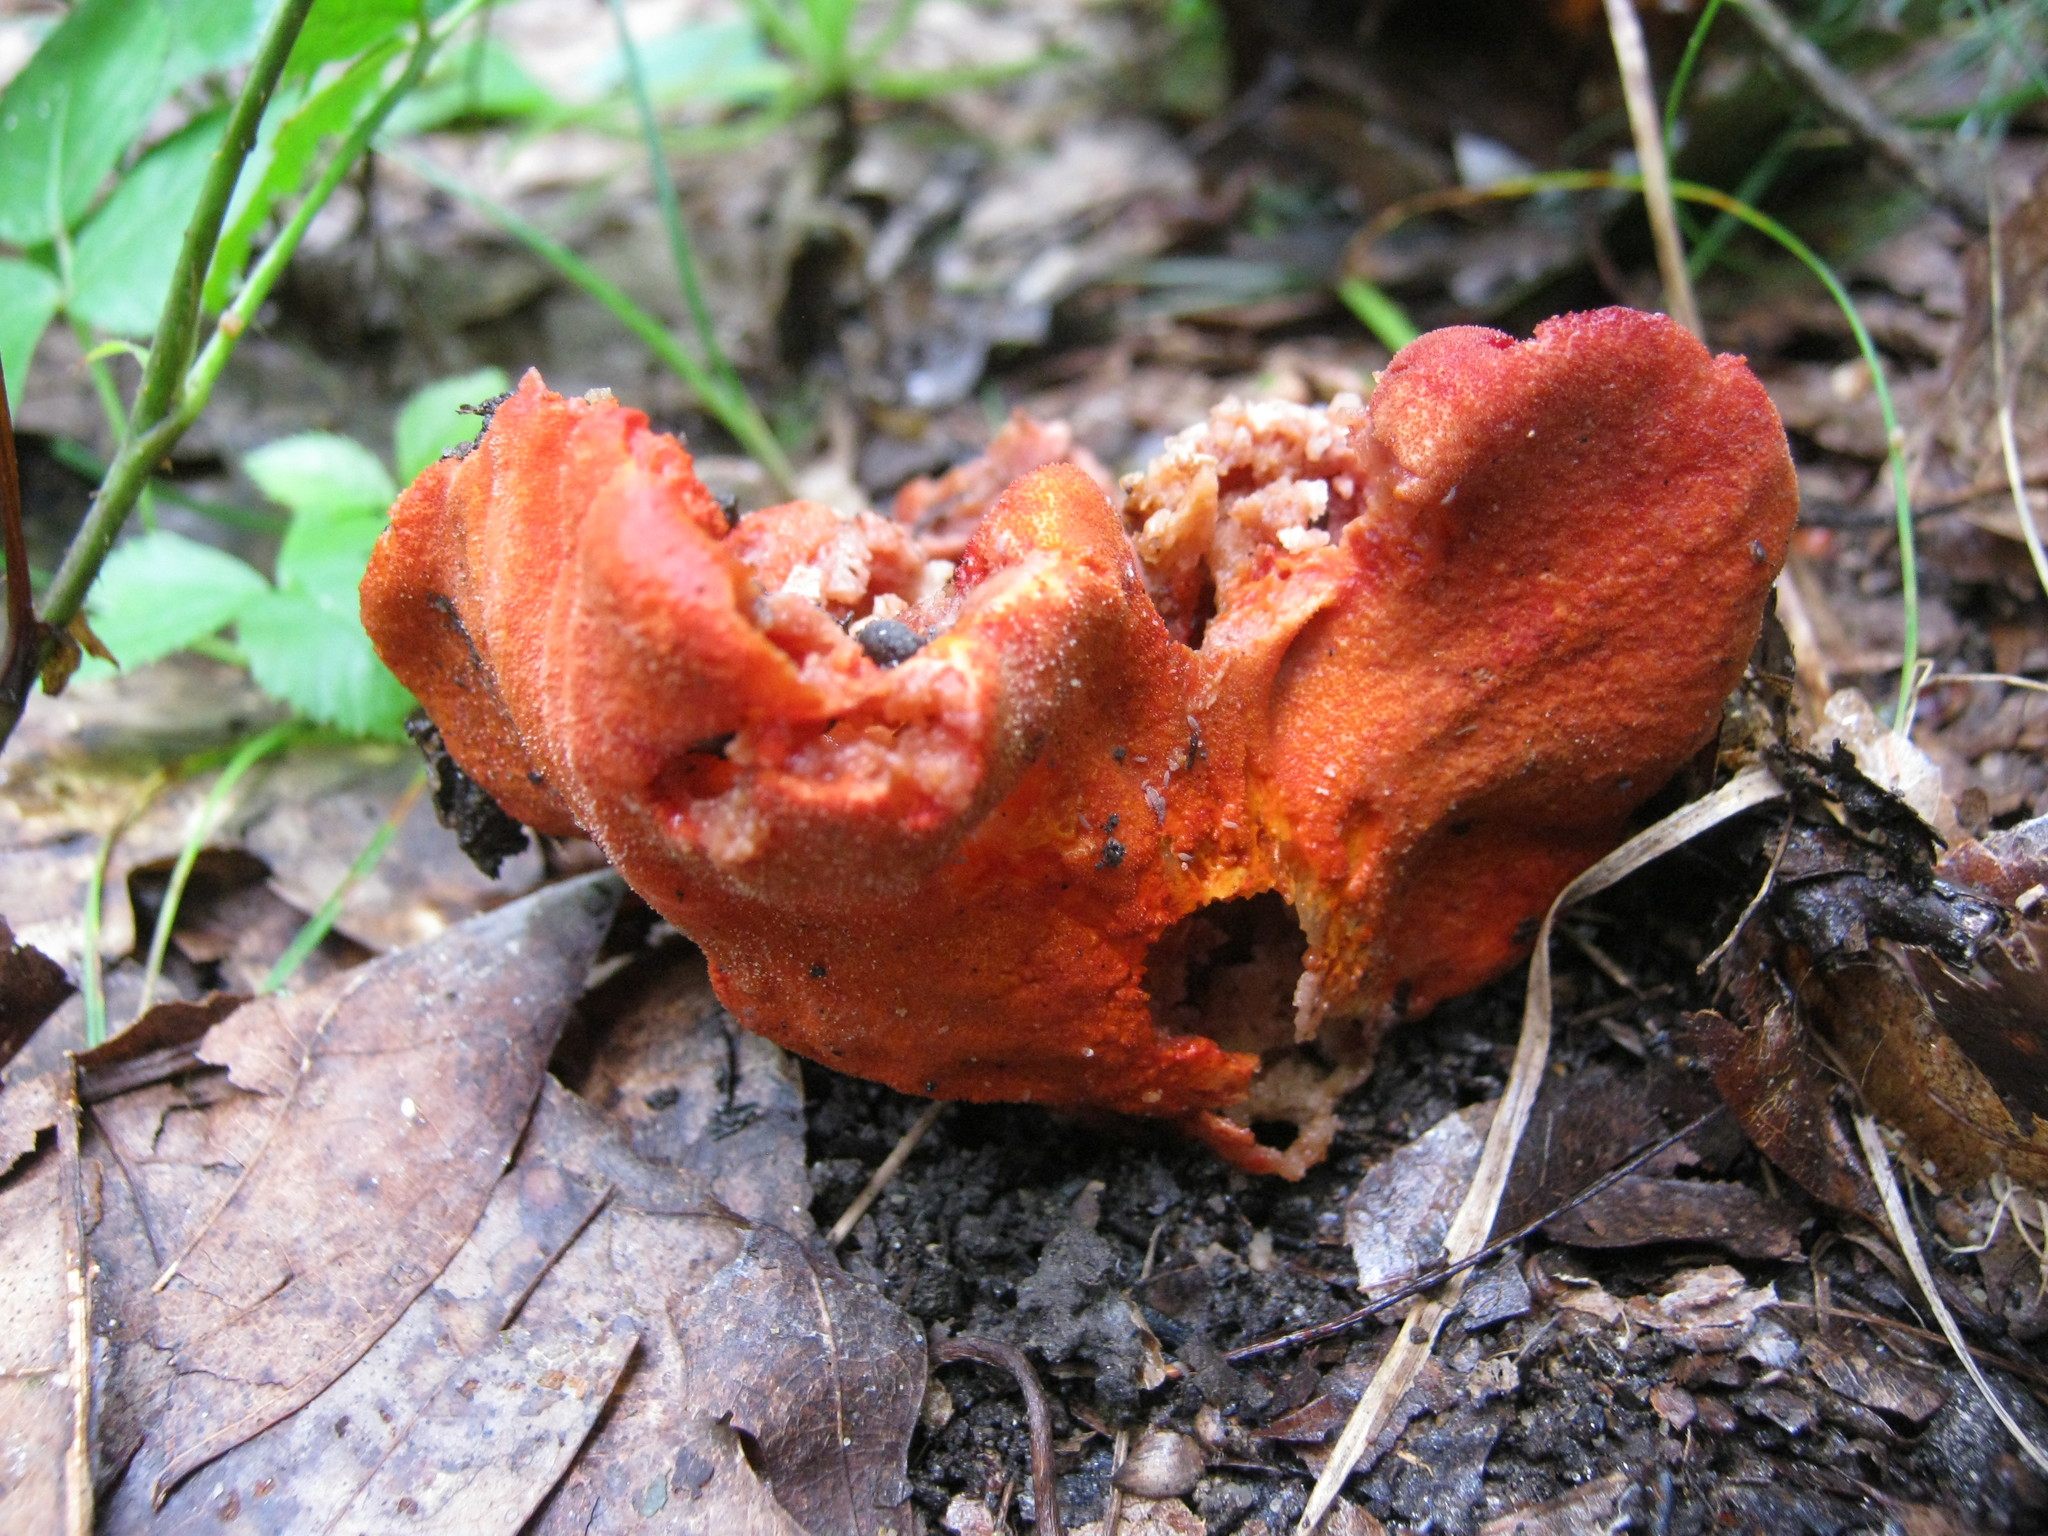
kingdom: Fungi
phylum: Ascomycota
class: Sordariomycetes
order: Hypocreales
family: Hypocreaceae
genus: Hypomyces
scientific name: Hypomyces lactifluorum
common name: Lobster mushroom
